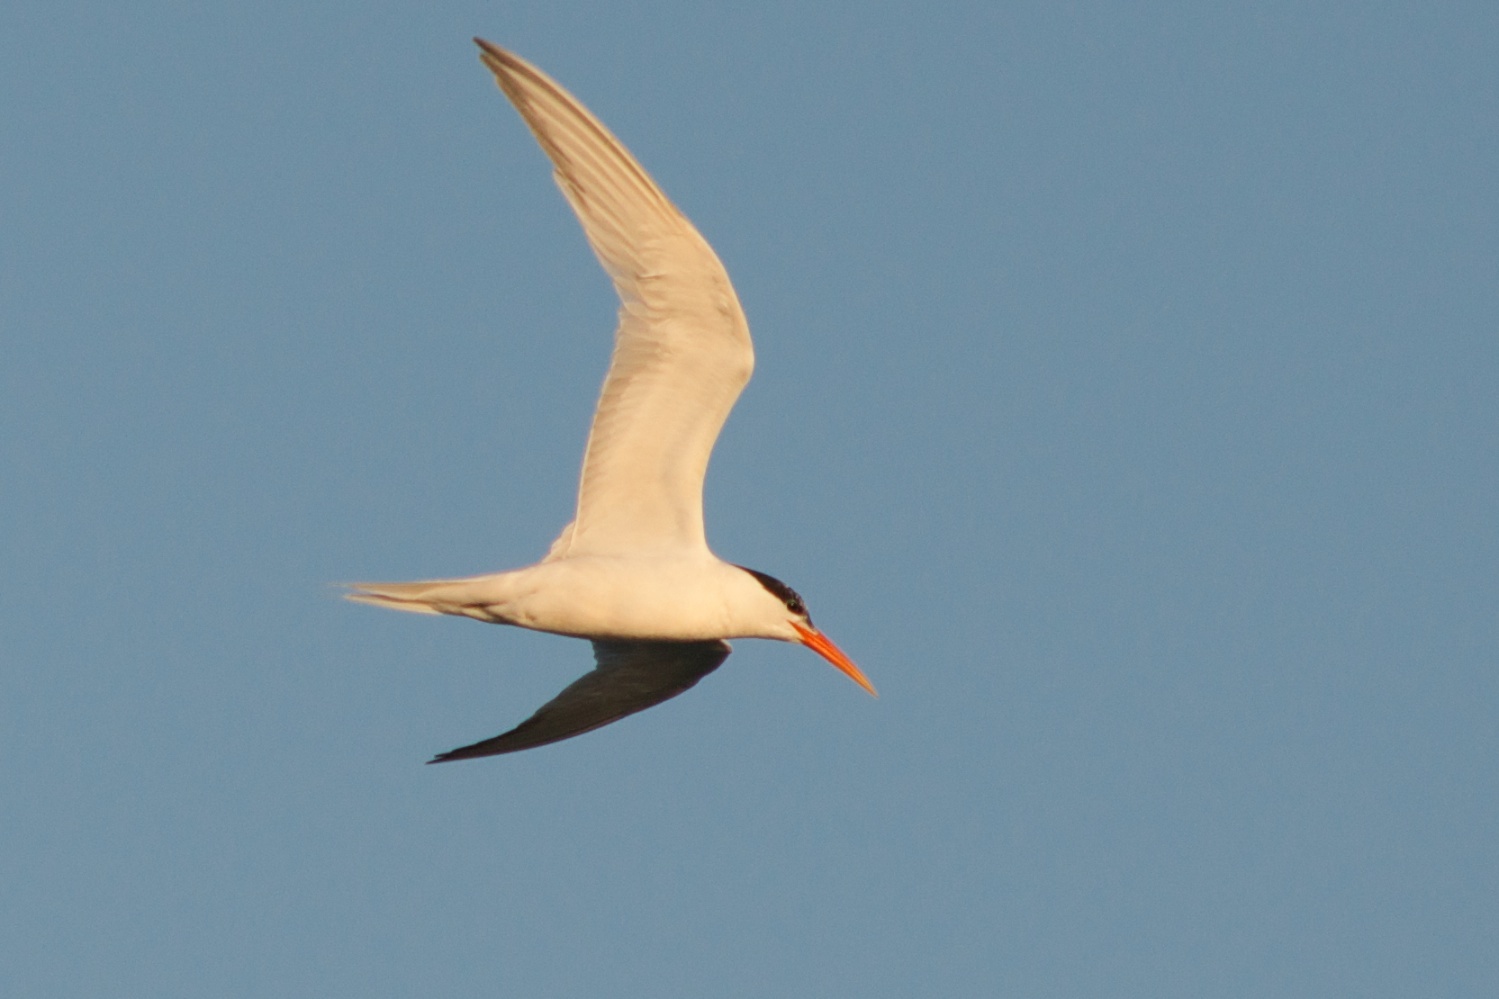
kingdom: Animalia
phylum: Chordata
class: Aves
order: Charadriiformes
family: Laridae
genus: Thalasseus
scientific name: Thalasseus elegans
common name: Elegant tern
